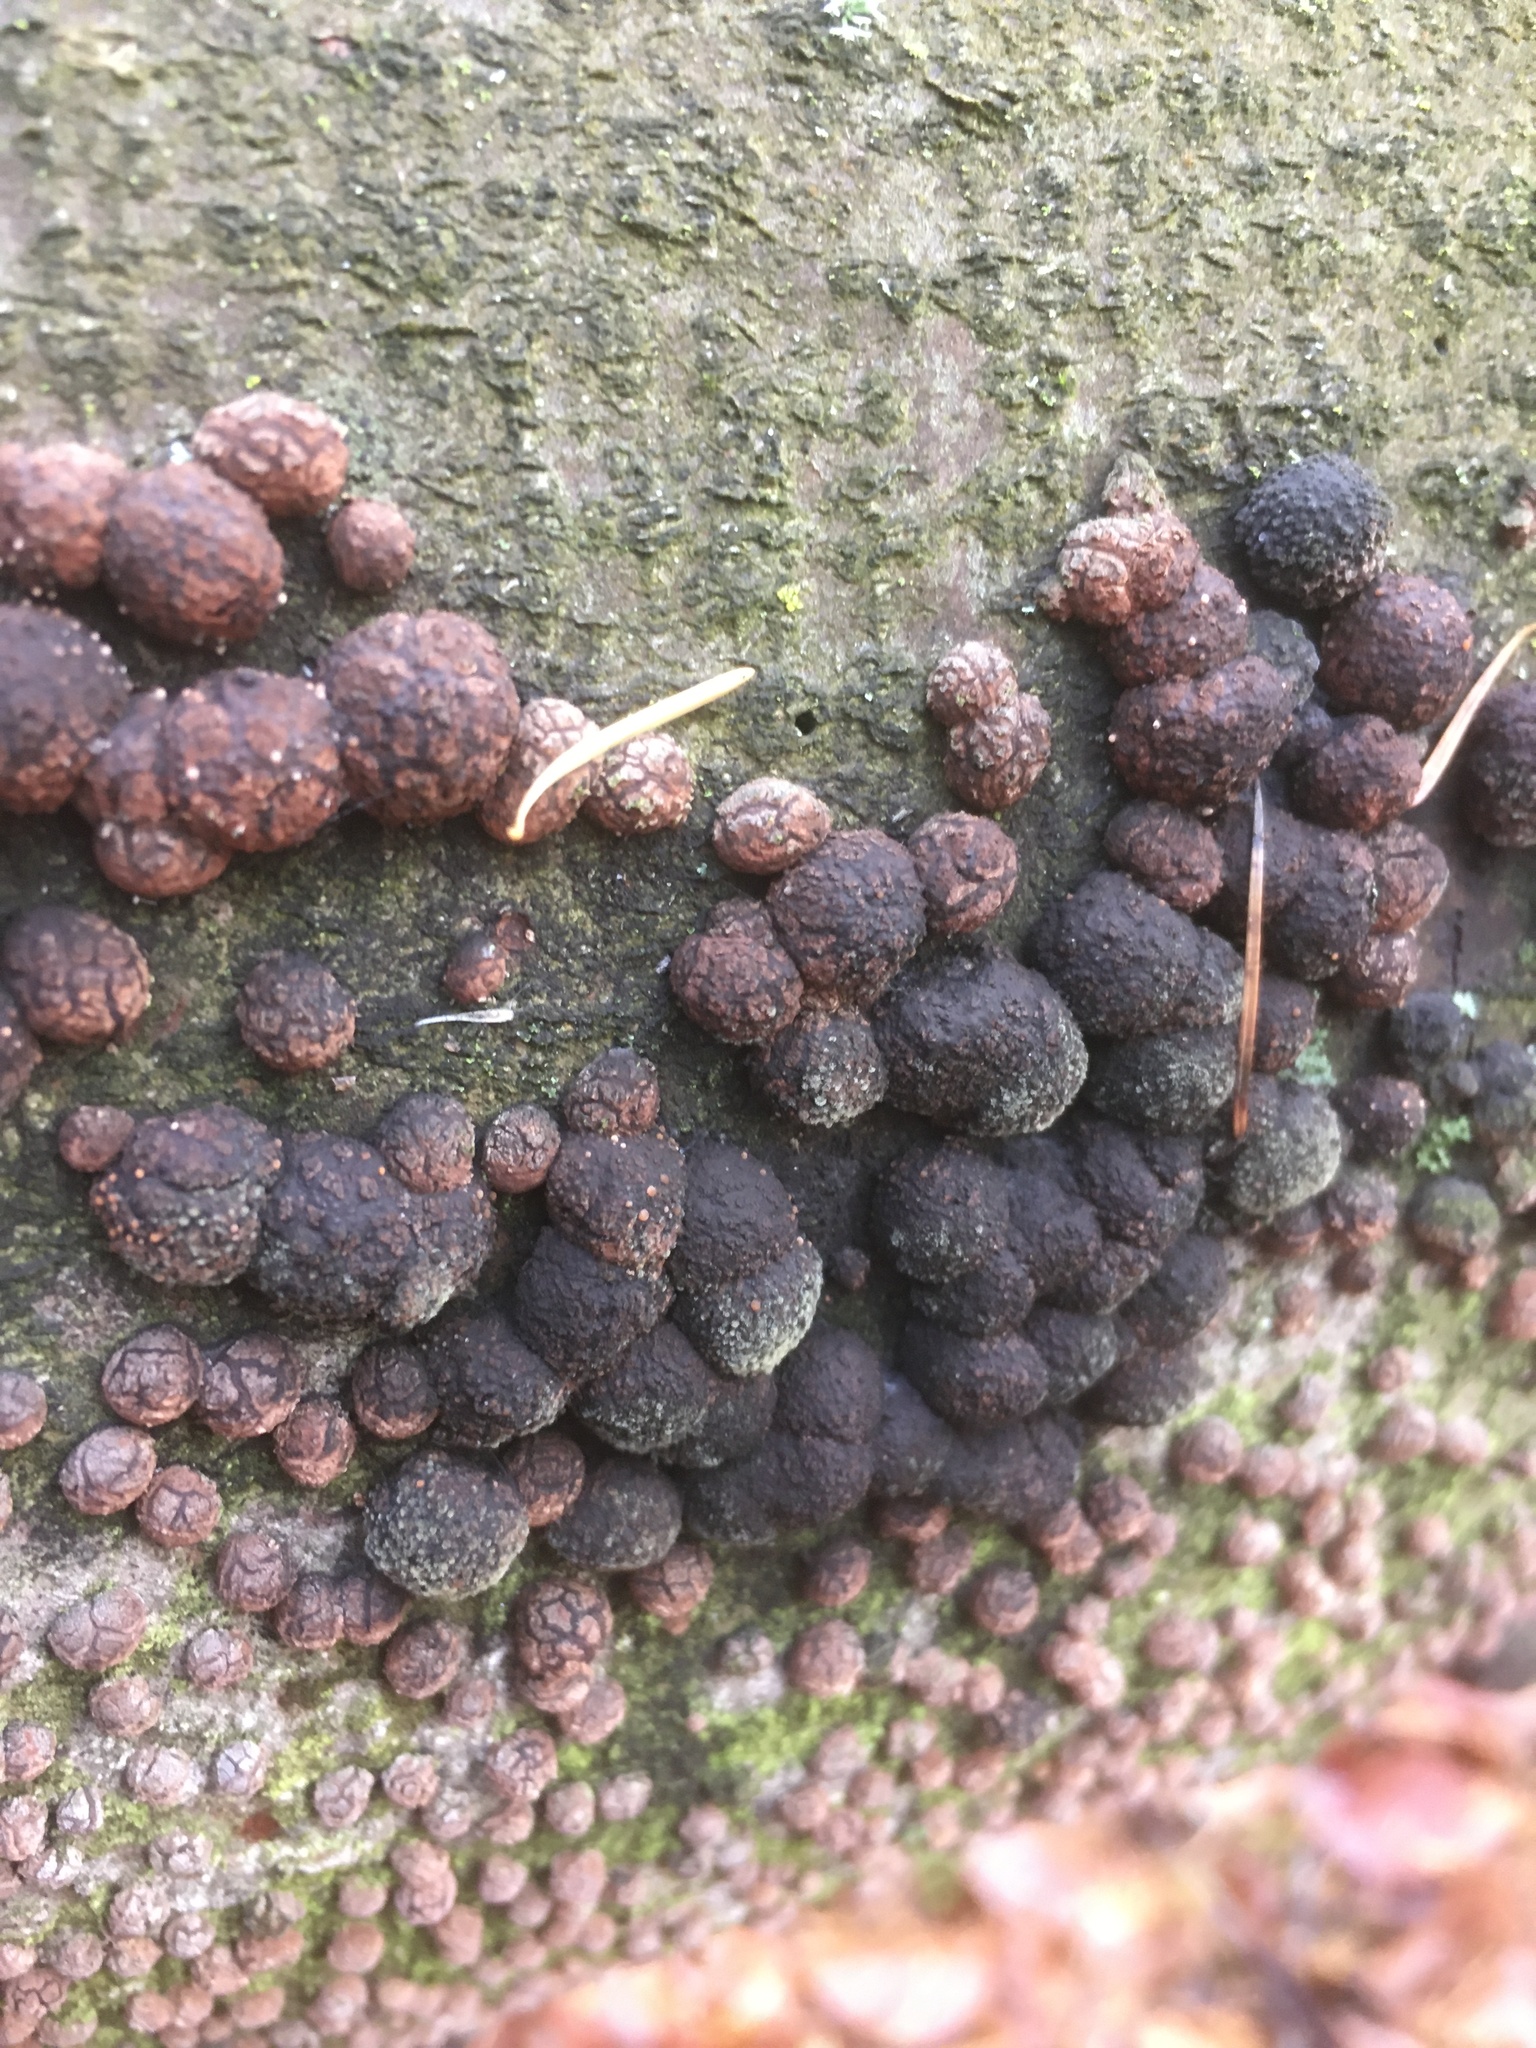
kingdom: Fungi
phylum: Ascomycota
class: Sordariomycetes
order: Xylariales
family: Hypoxylaceae
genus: Hypoxylon
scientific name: Hypoxylon fragiforme
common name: Beech woodwart
